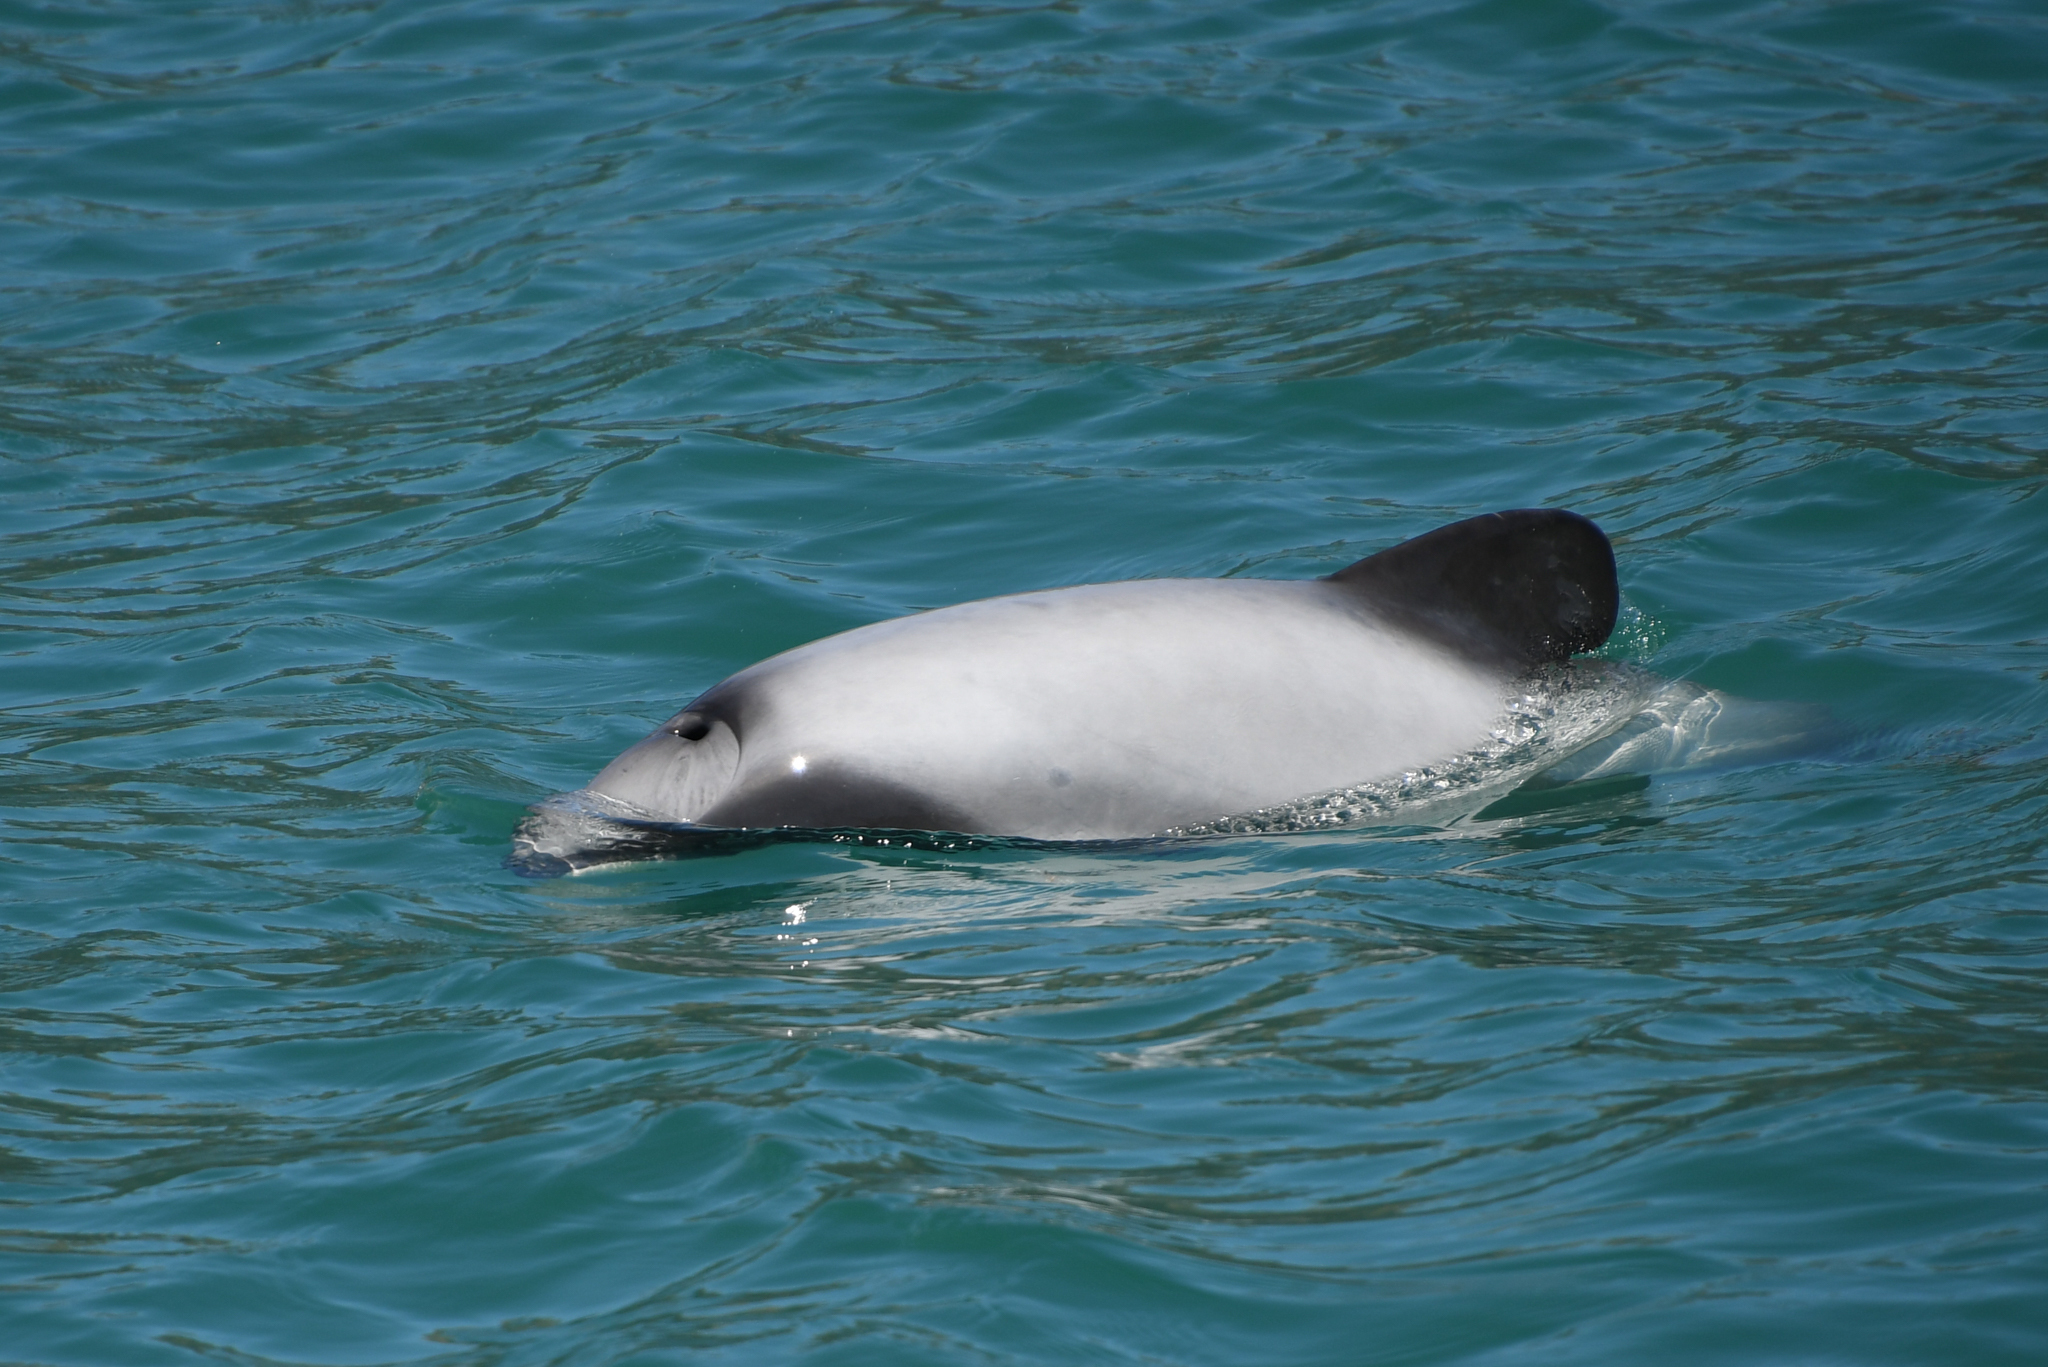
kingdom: Animalia
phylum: Chordata
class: Mammalia
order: Cetacea
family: Delphinidae
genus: Cephalorhynchus
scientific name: Cephalorhynchus hectori
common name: Hector's dolphin
